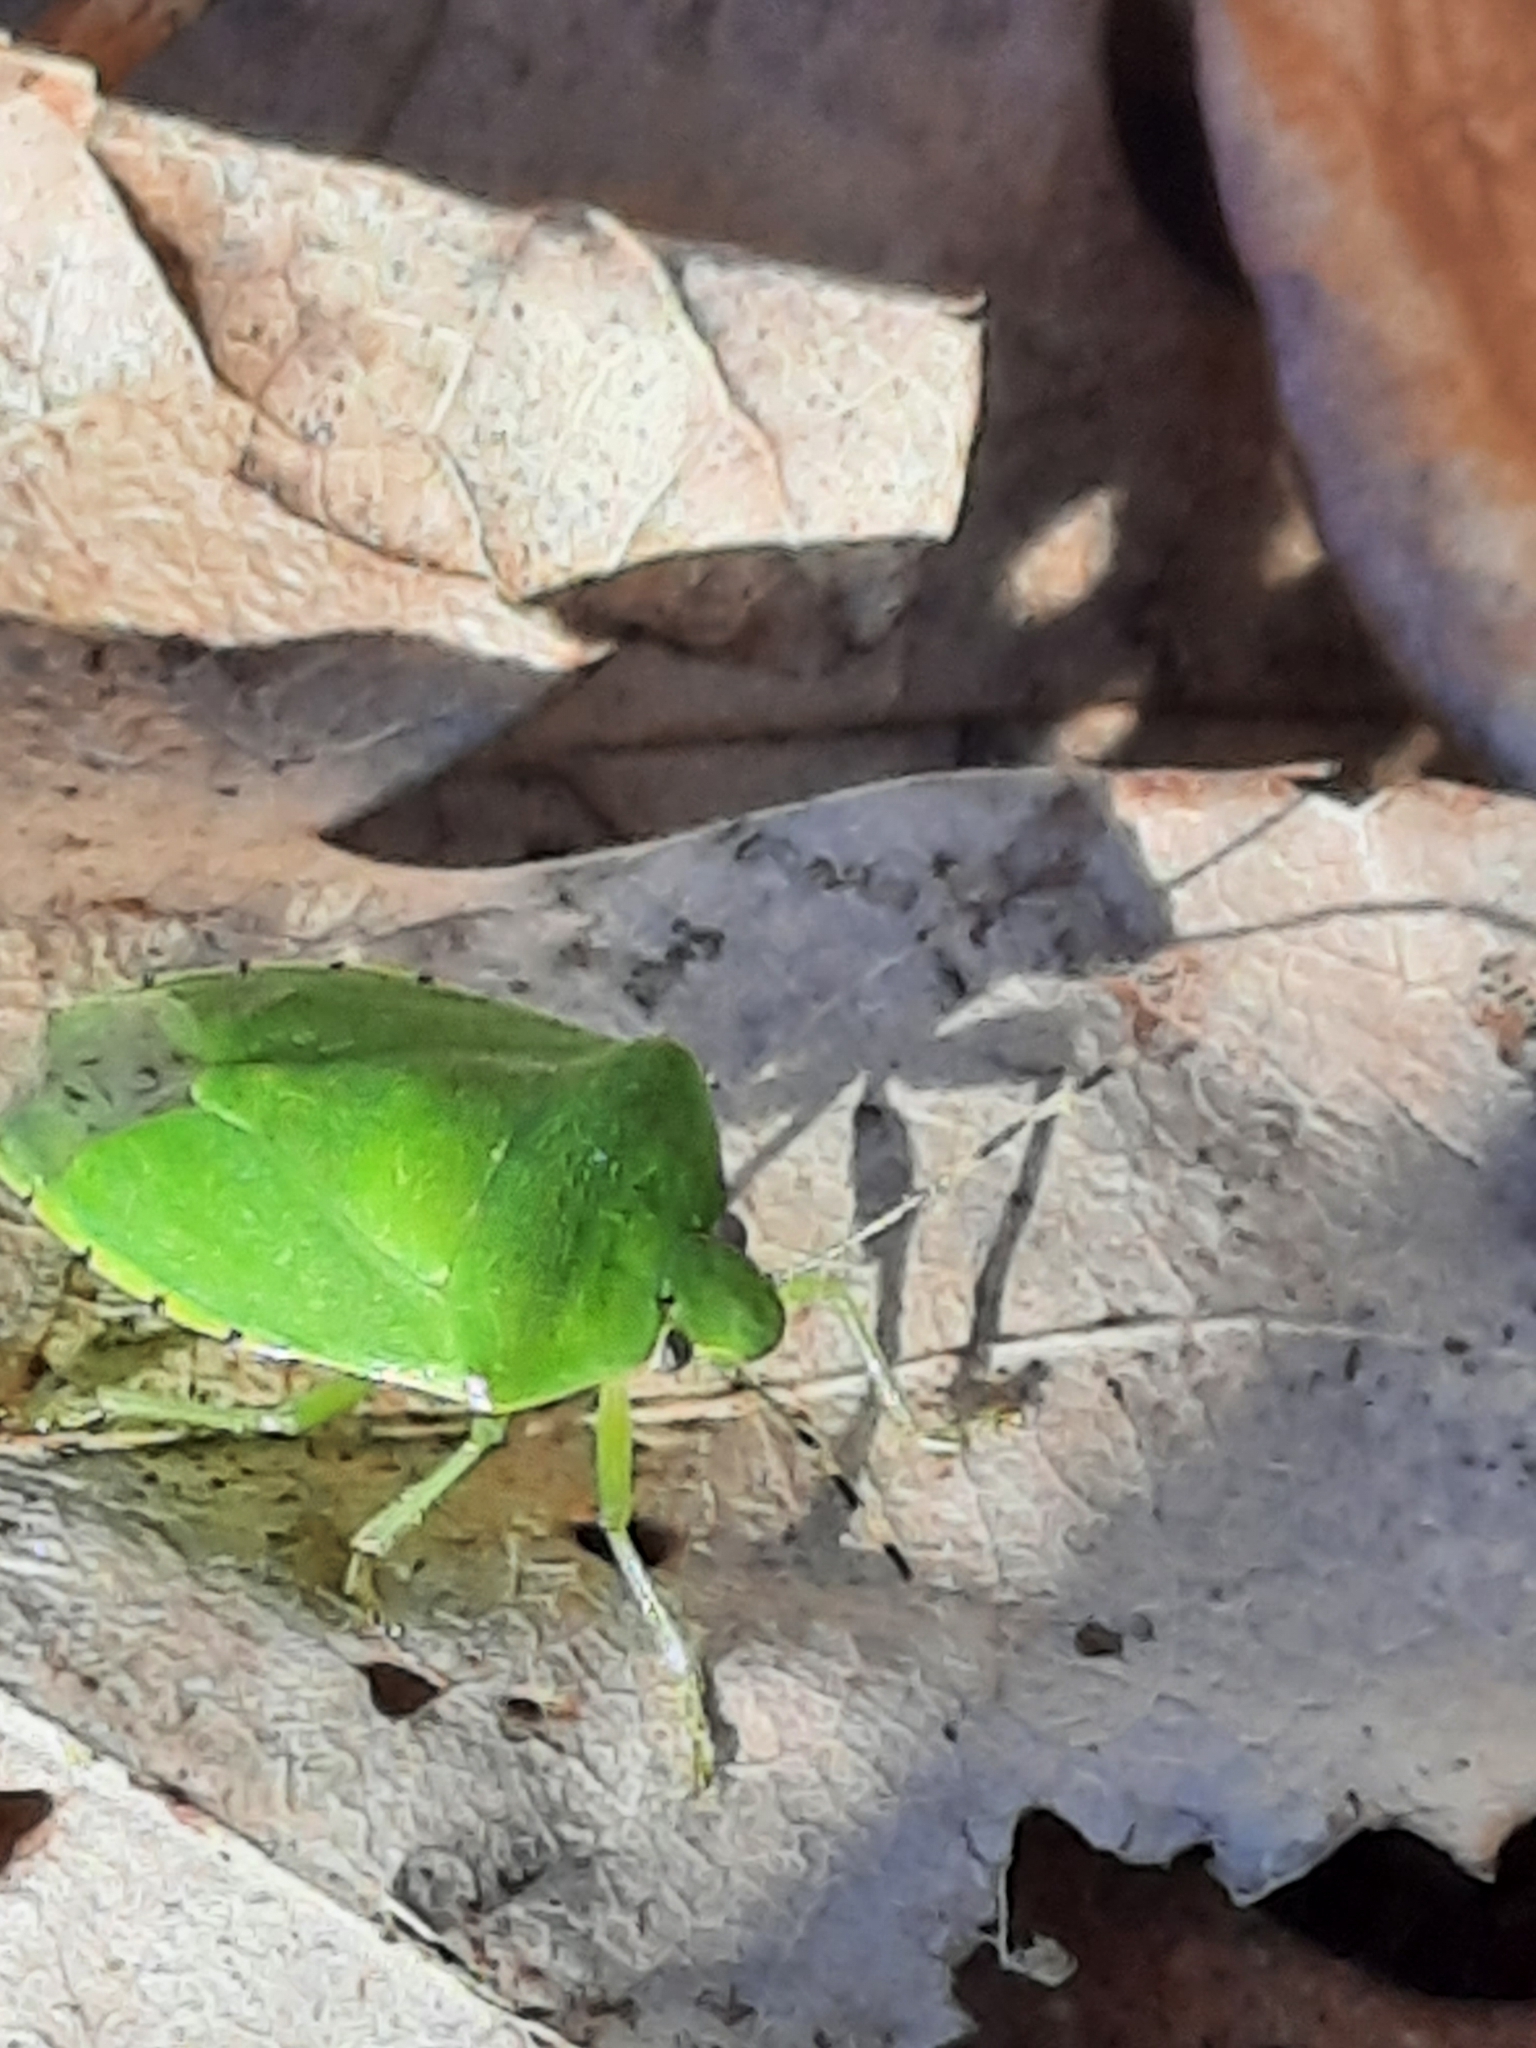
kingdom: Animalia
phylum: Arthropoda
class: Insecta
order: Hemiptera
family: Pentatomidae
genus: Chinavia
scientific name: Chinavia hilaris
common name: Green stink bug
